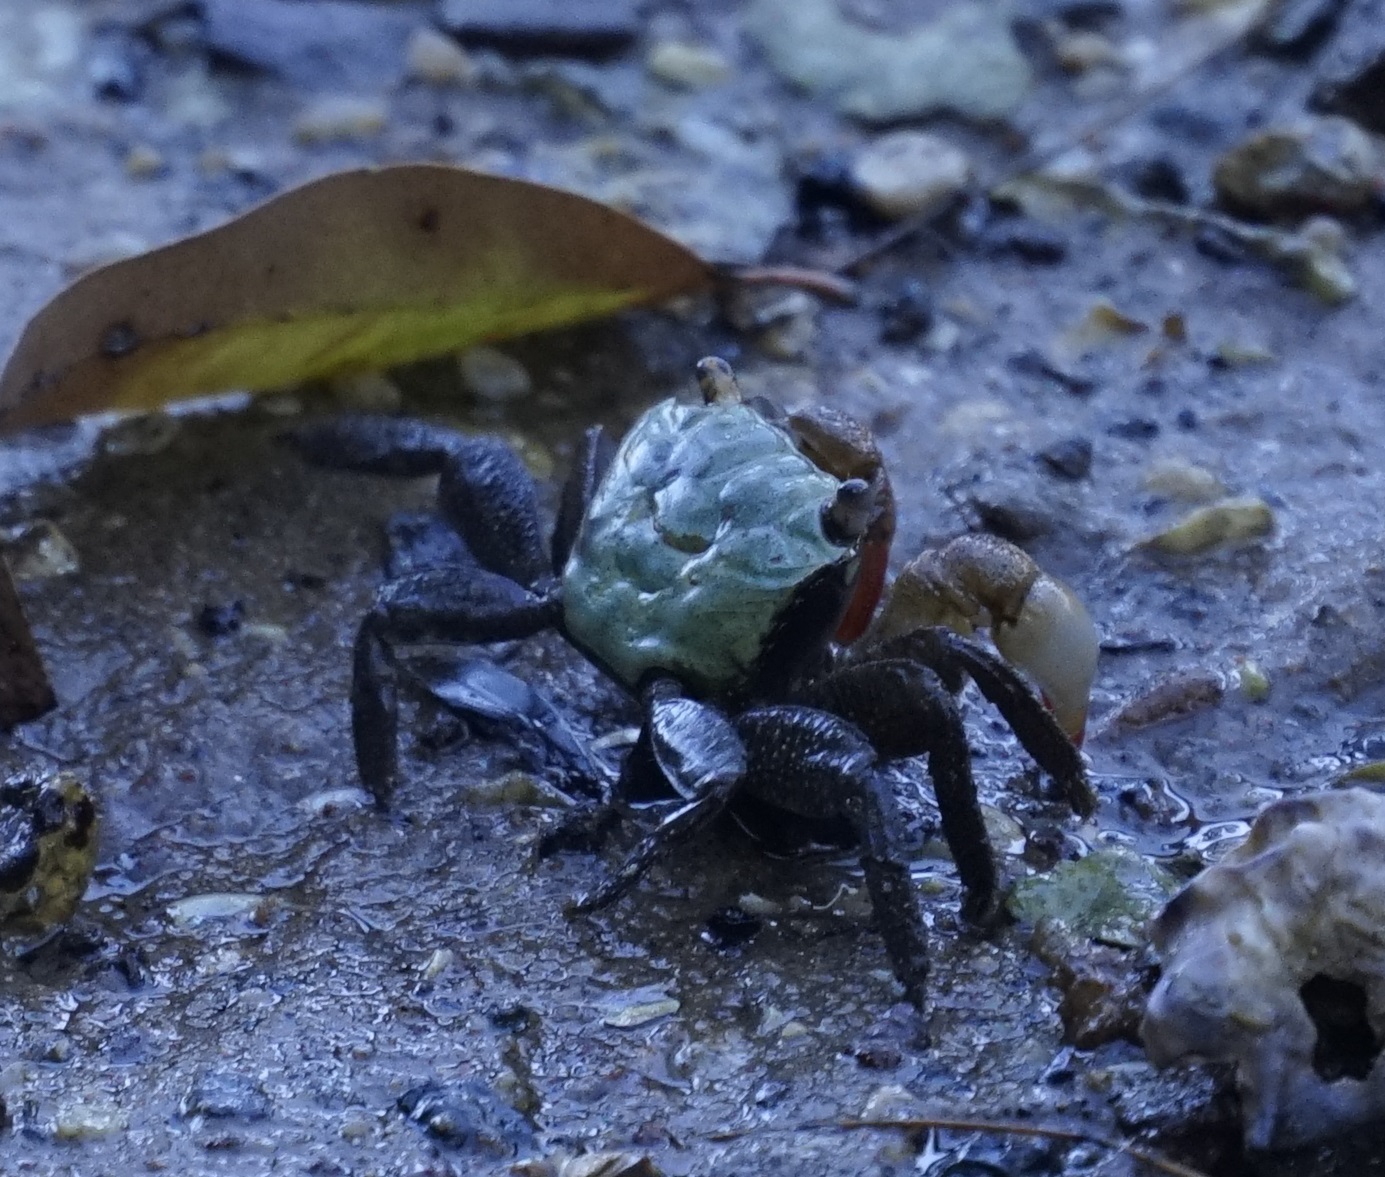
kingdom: Animalia
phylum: Arthropoda
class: Malacostraca
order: Decapoda
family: Sesarmidae
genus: Parasesarma
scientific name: Parasesarma erythodactylum
